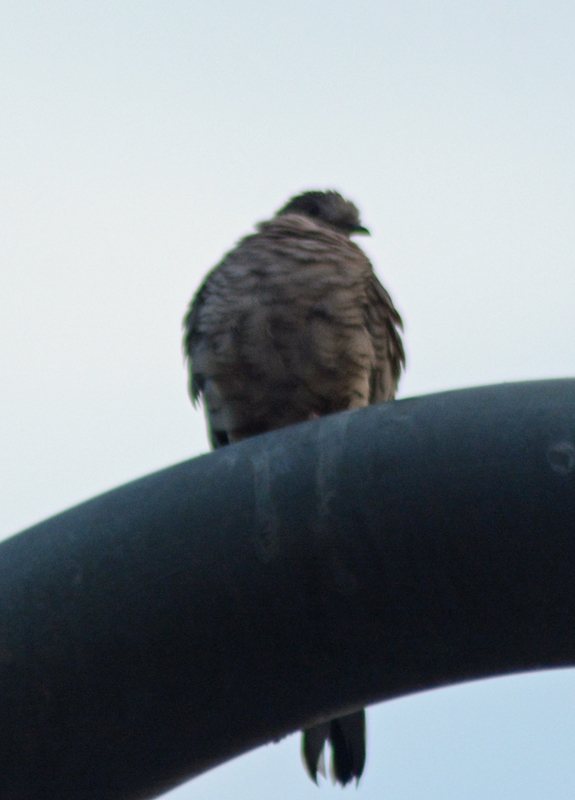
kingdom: Animalia
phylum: Chordata
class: Aves
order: Columbiformes
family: Columbidae
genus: Columbina
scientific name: Columbina inca
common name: Inca dove
